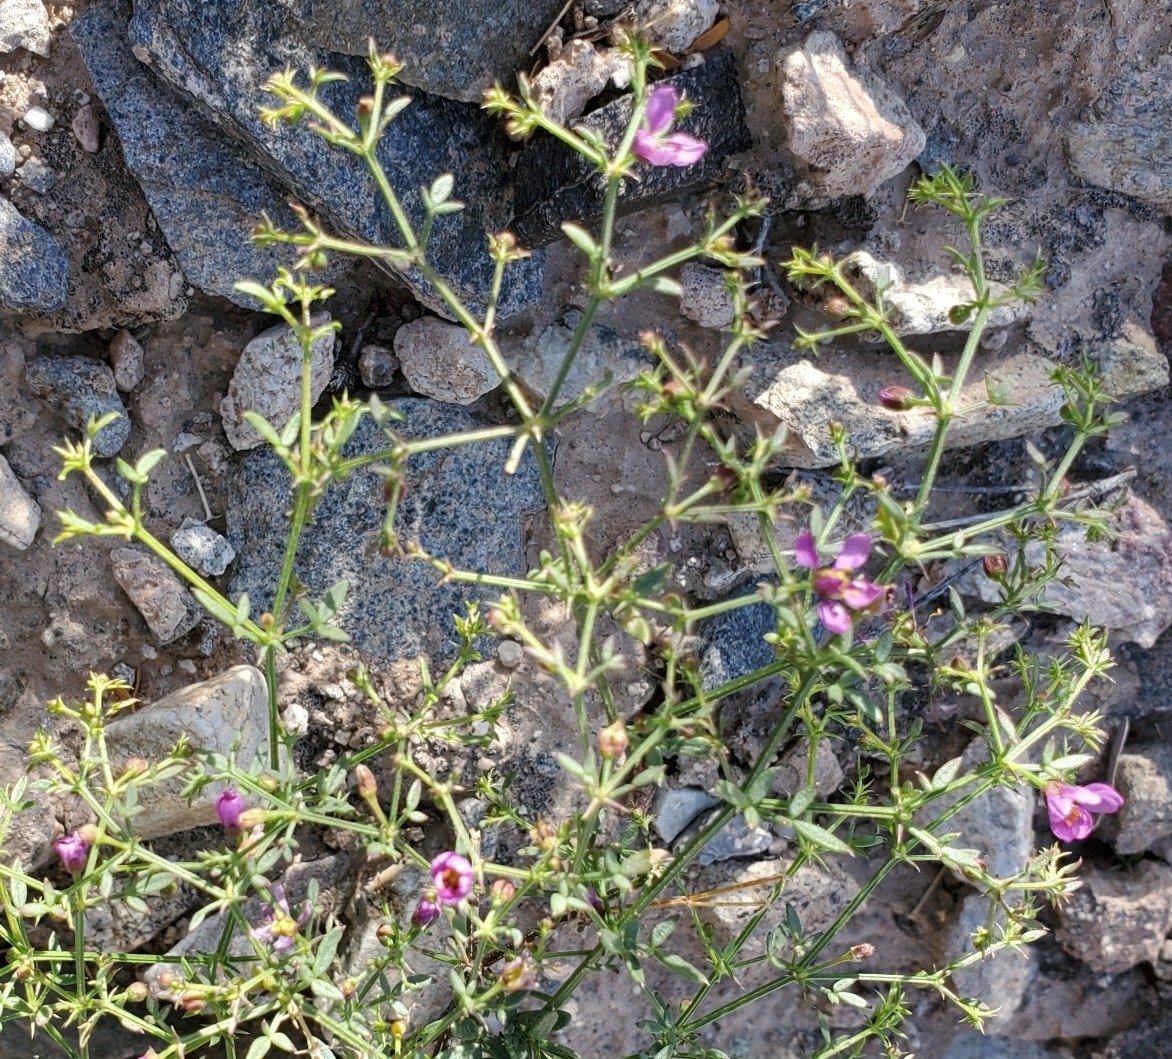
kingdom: Plantae
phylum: Tracheophyta
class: Magnoliopsida
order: Zygophyllales
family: Zygophyllaceae
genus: Fagonia
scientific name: Fagonia laevis
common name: California fagonbush
